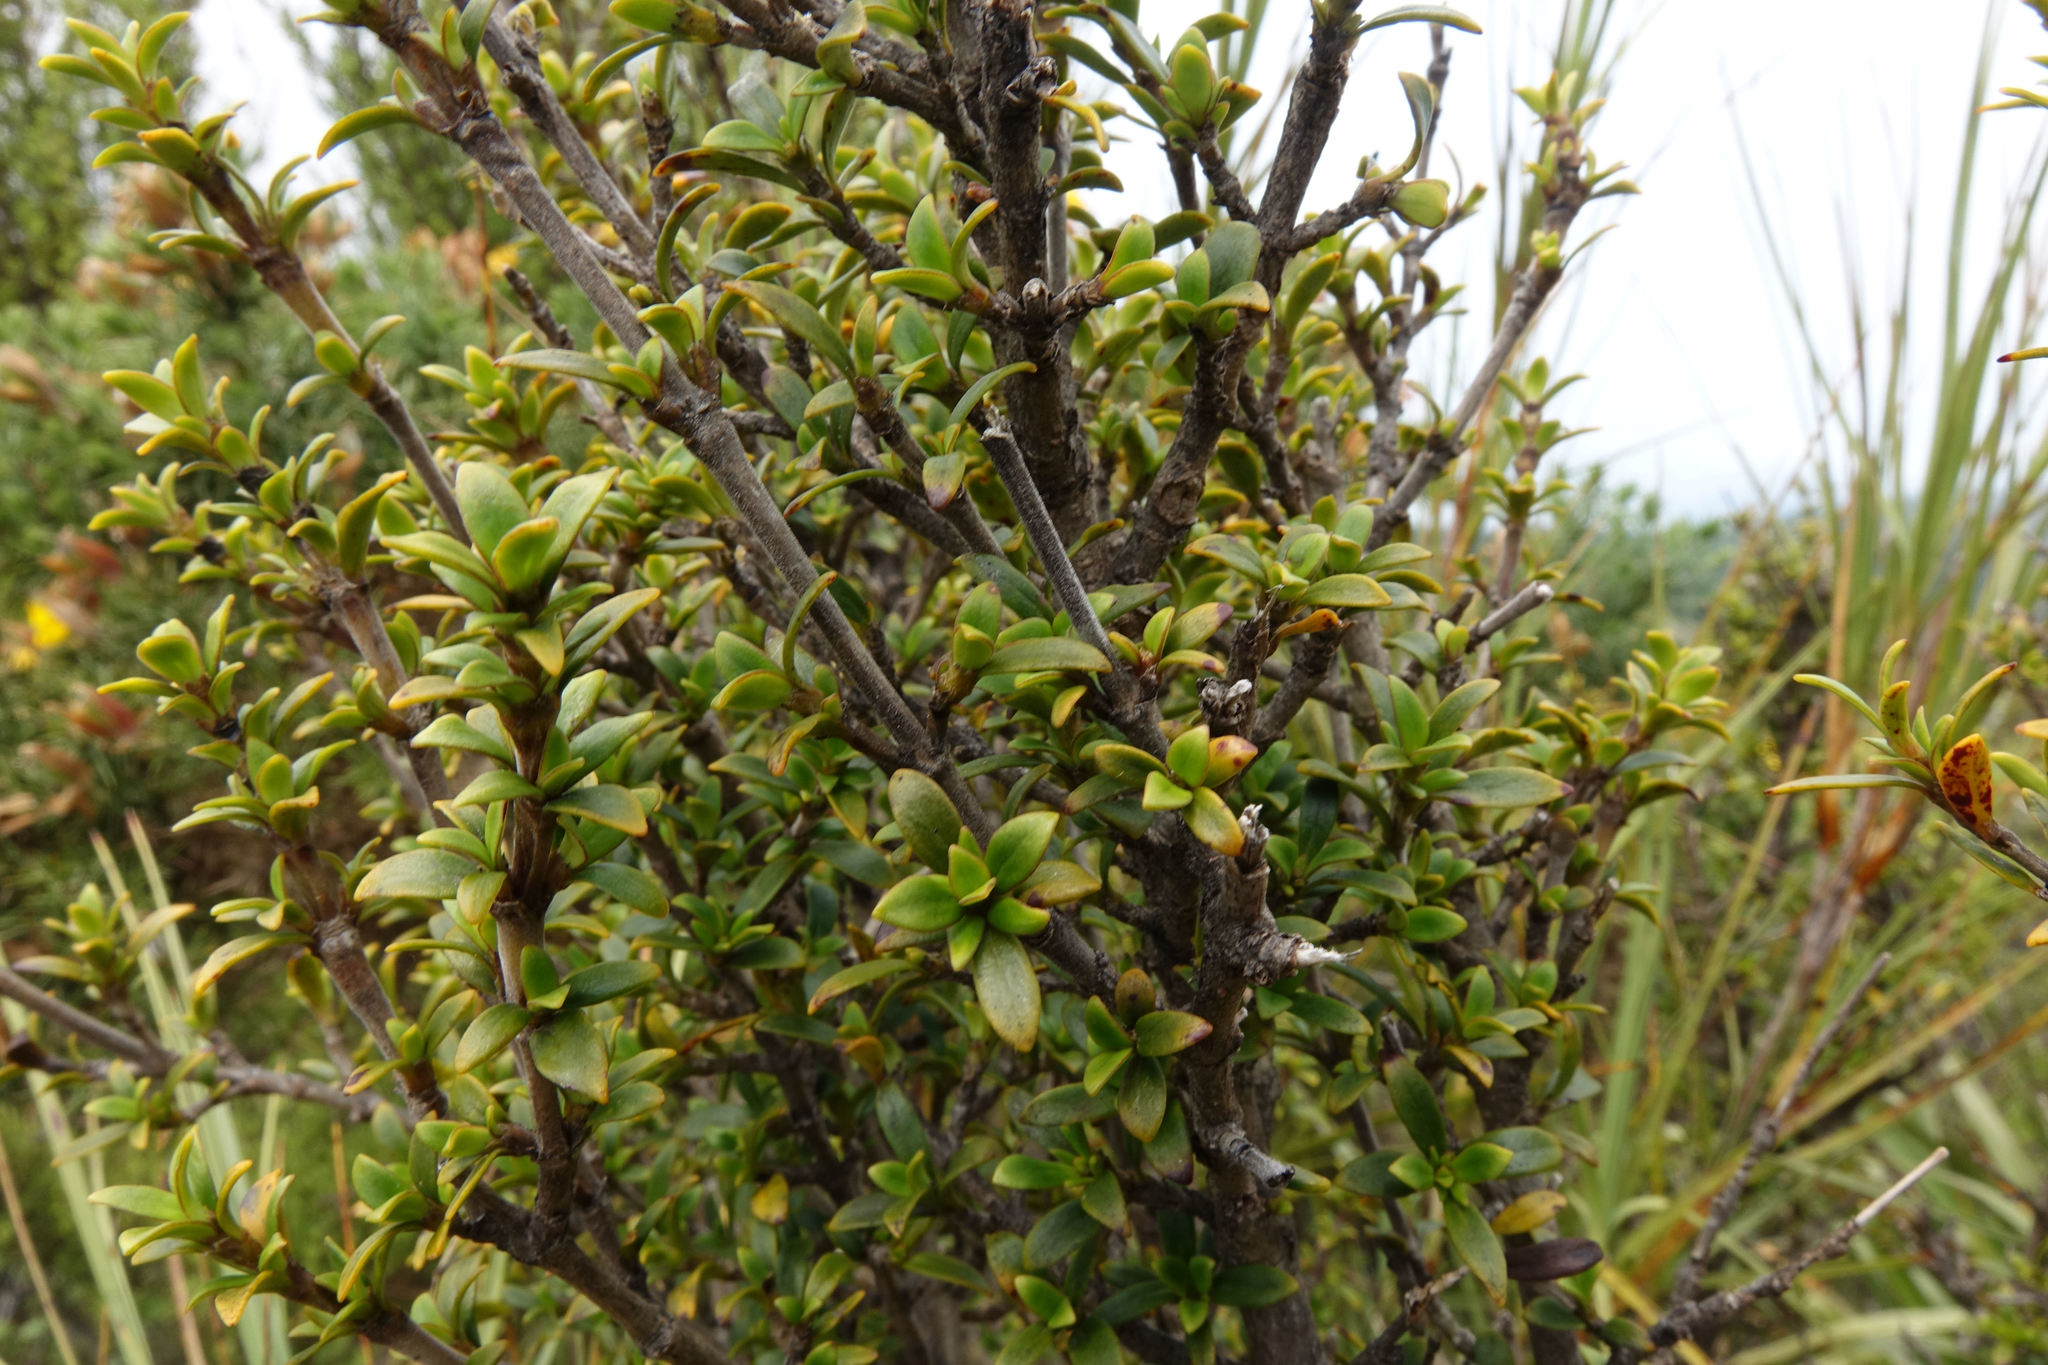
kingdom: Plantae
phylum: Tracheophyta
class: Magnoliopsida
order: Gentianales
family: Rubiaceae
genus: Coprosma
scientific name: Coprosma pseudocuneata
